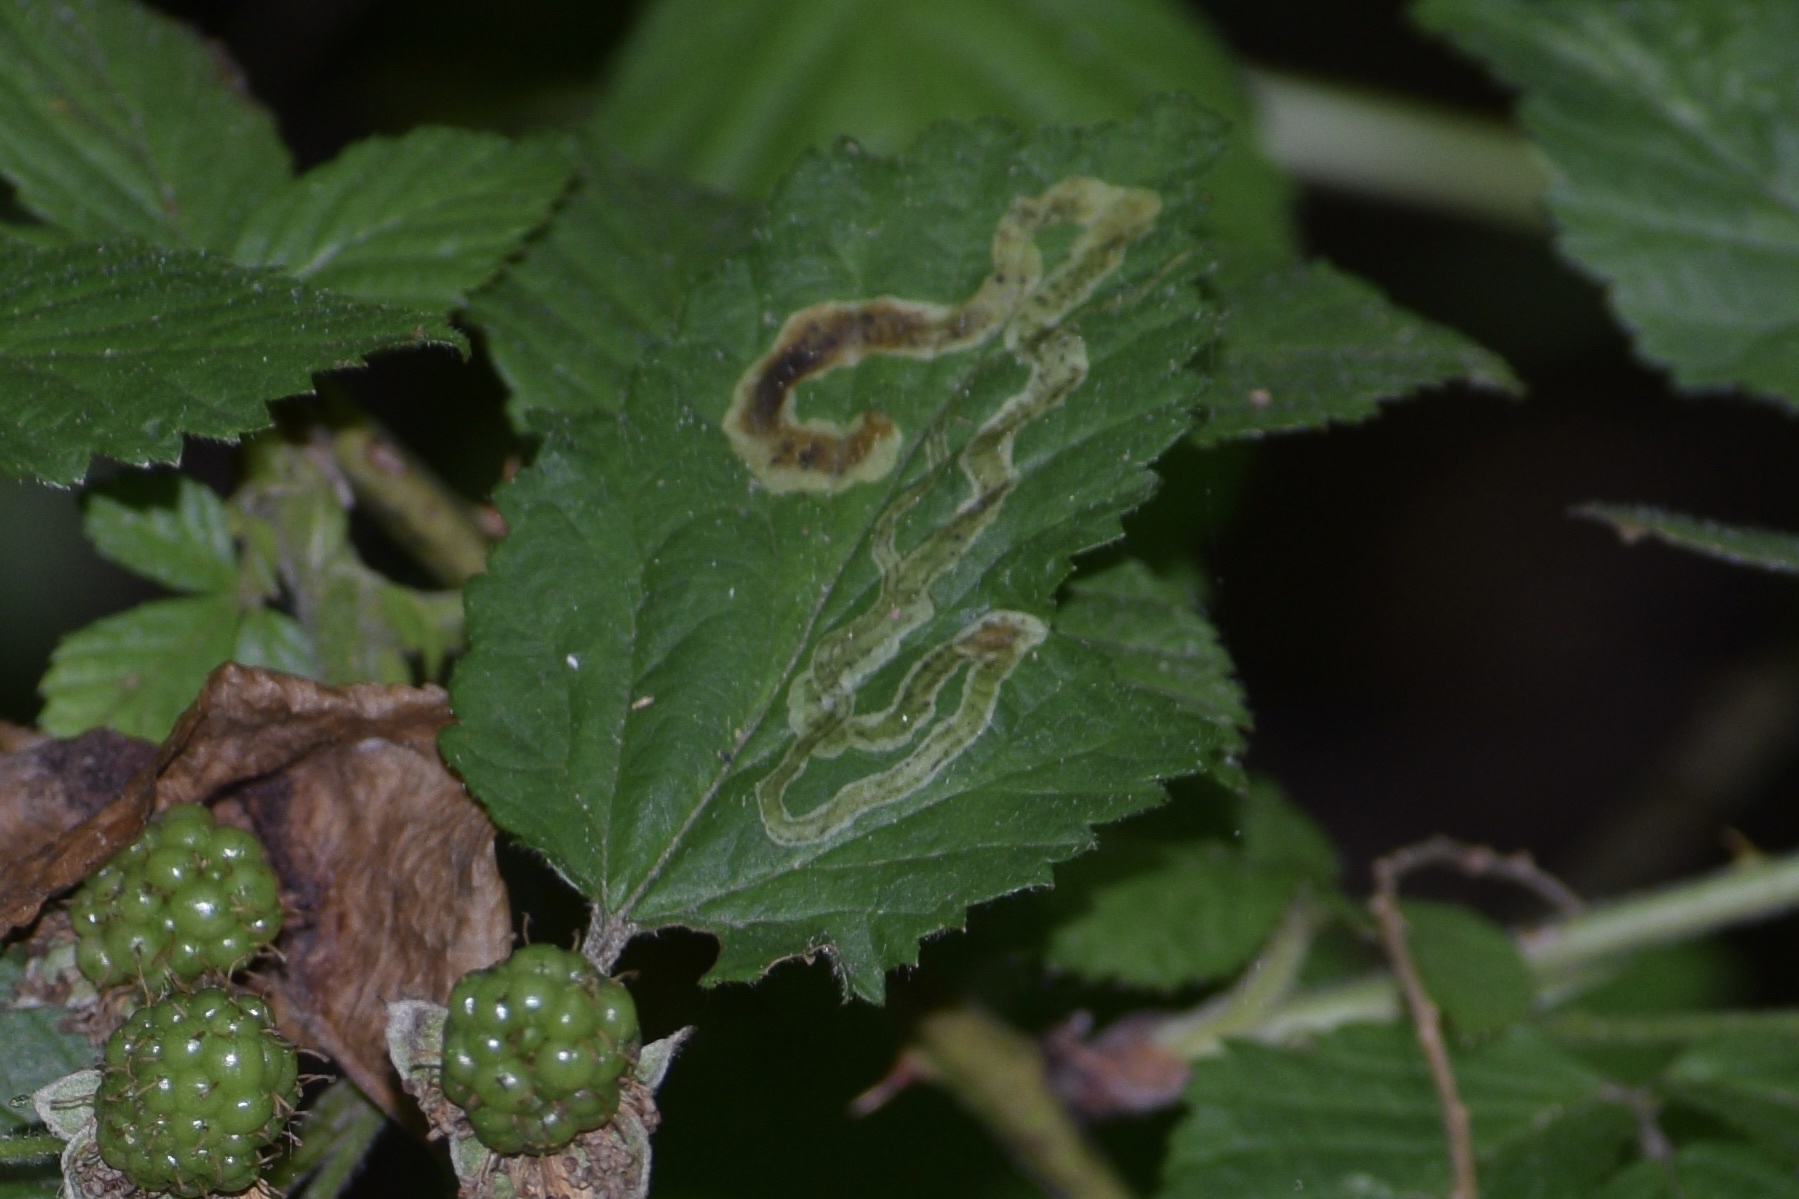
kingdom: Animalia
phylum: Arthropoda
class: Insecta
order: Diptera
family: Agromyzidae
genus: Agromyza
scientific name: Agromyza vockerothi
